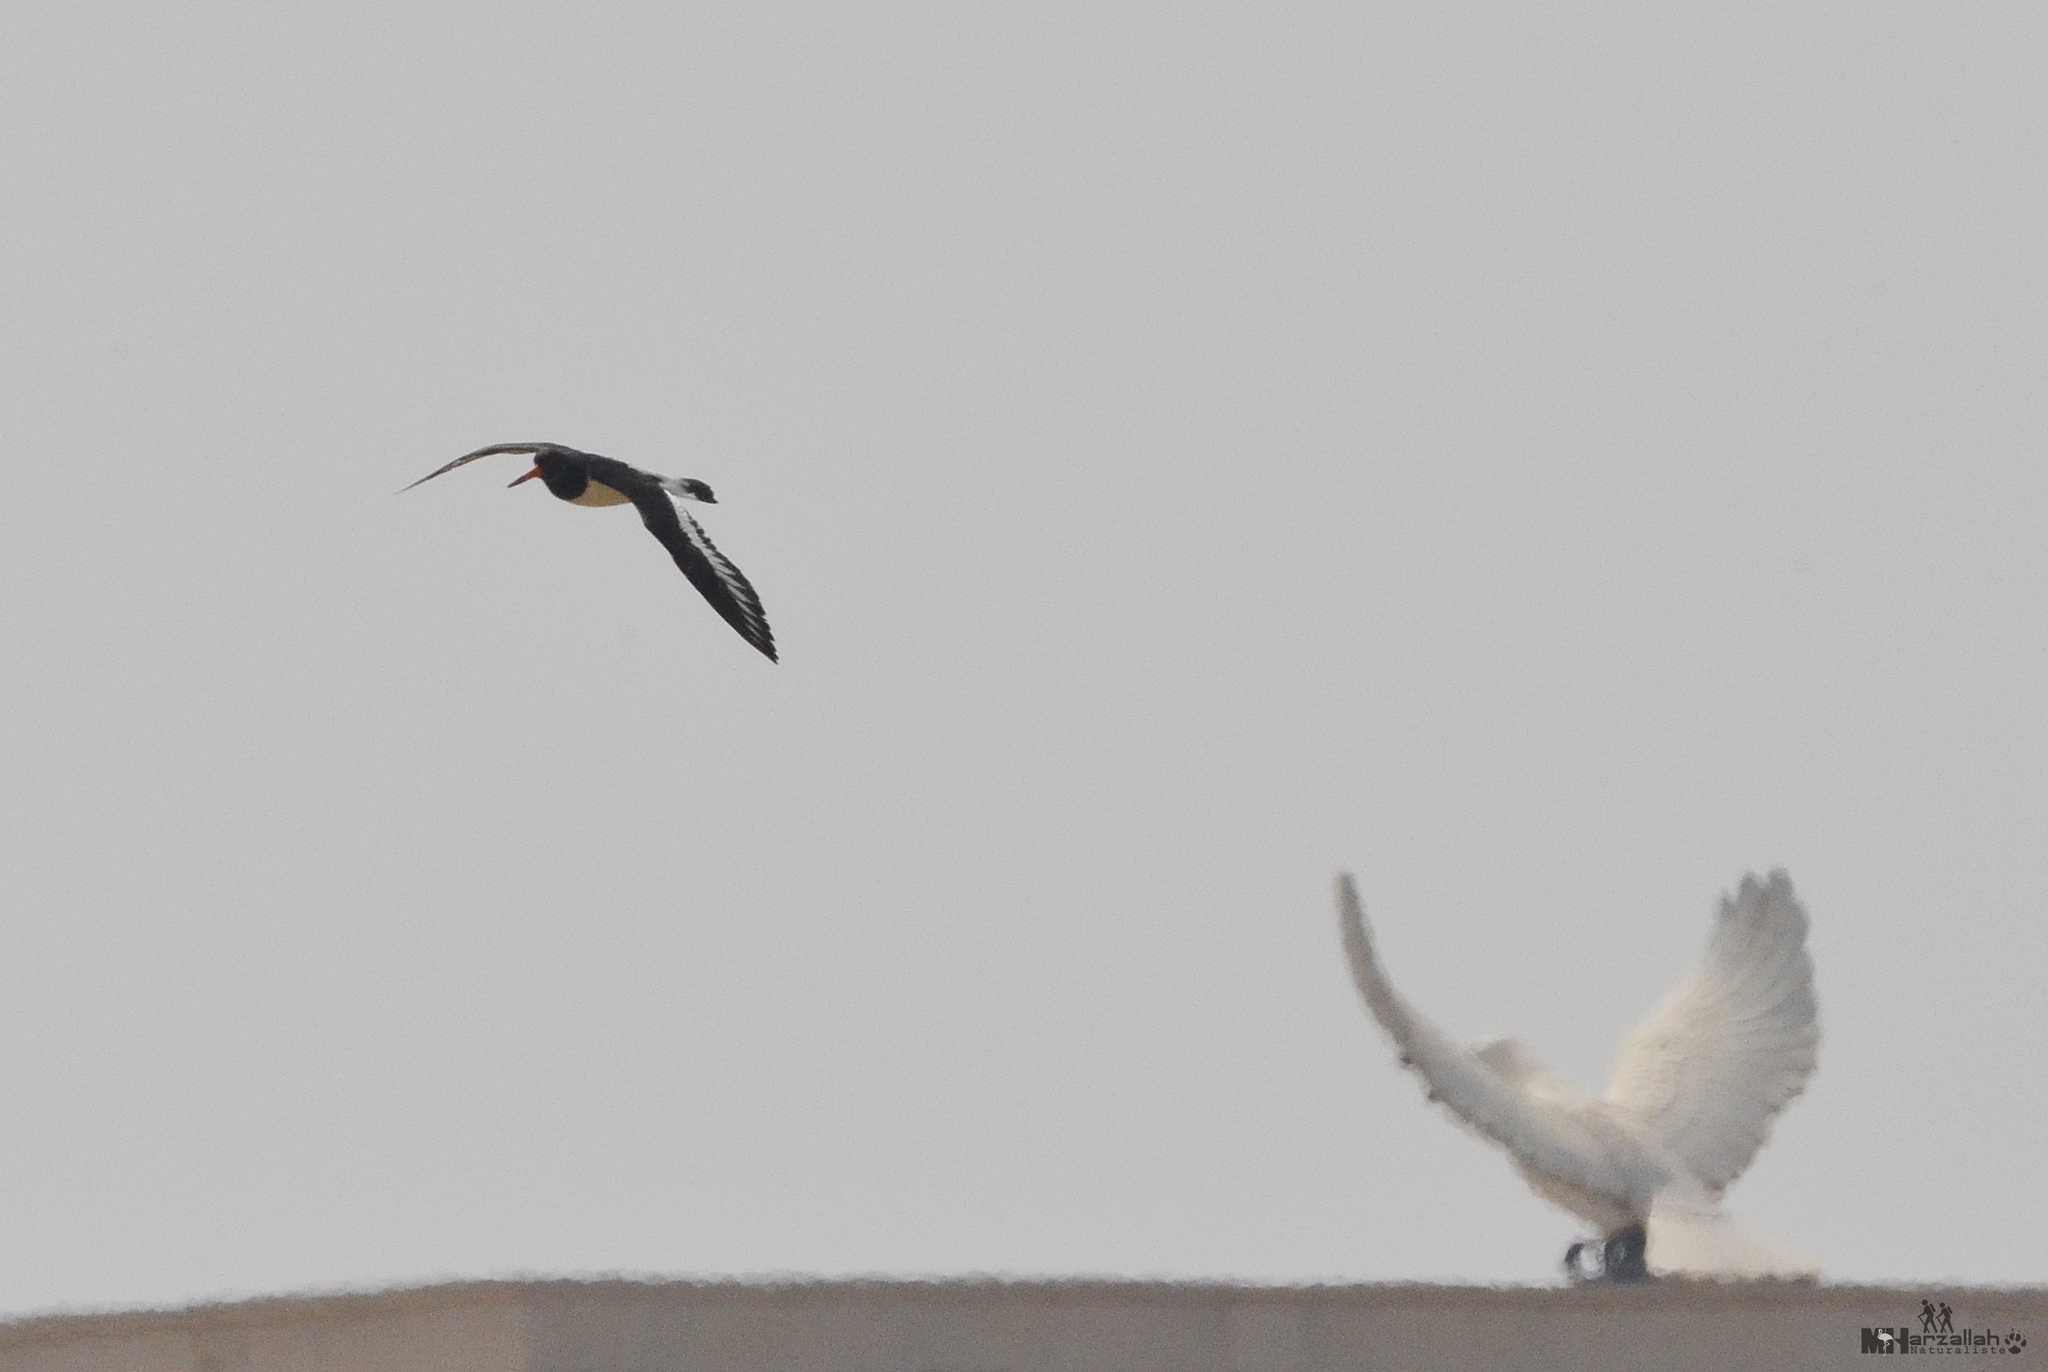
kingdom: Animalia
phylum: Chordata
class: Aves
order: Charadriiformes
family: Haematopodidae
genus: Haematopus
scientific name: Haematopus ostralegus
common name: Eurasian oystercatcher
